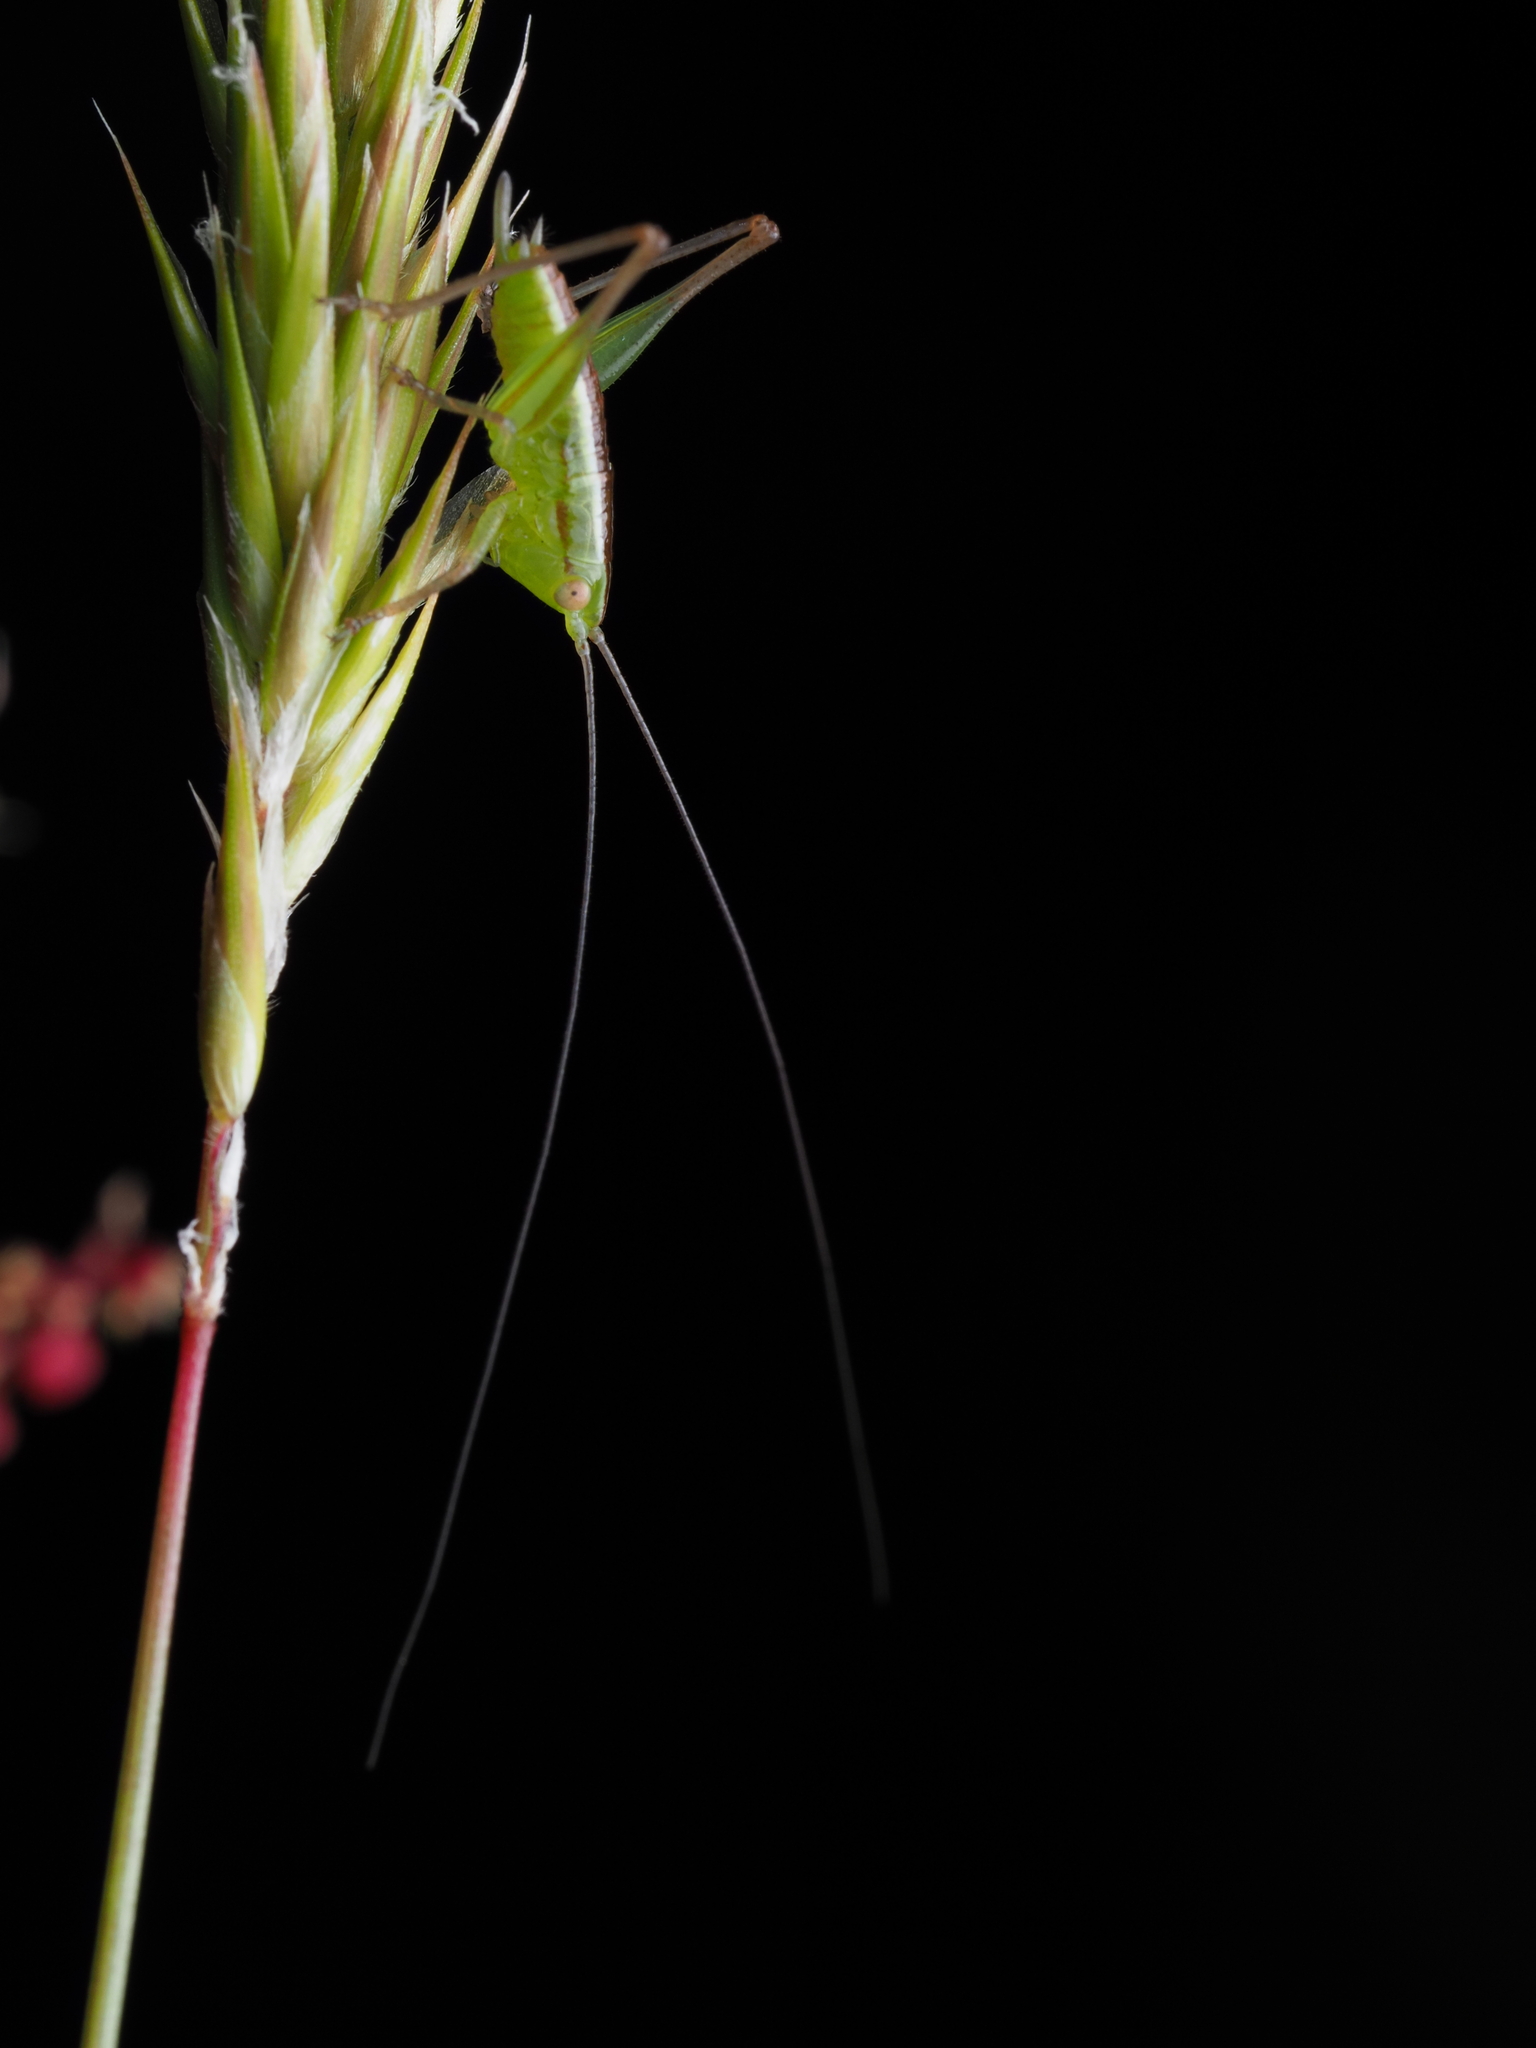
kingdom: Animalia
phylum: Arthropoda
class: Insecta
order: Orthoptera
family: Tettigoniidae
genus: Conocephalus
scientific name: Conocephalus bilineatus
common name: Small meadow katydid
